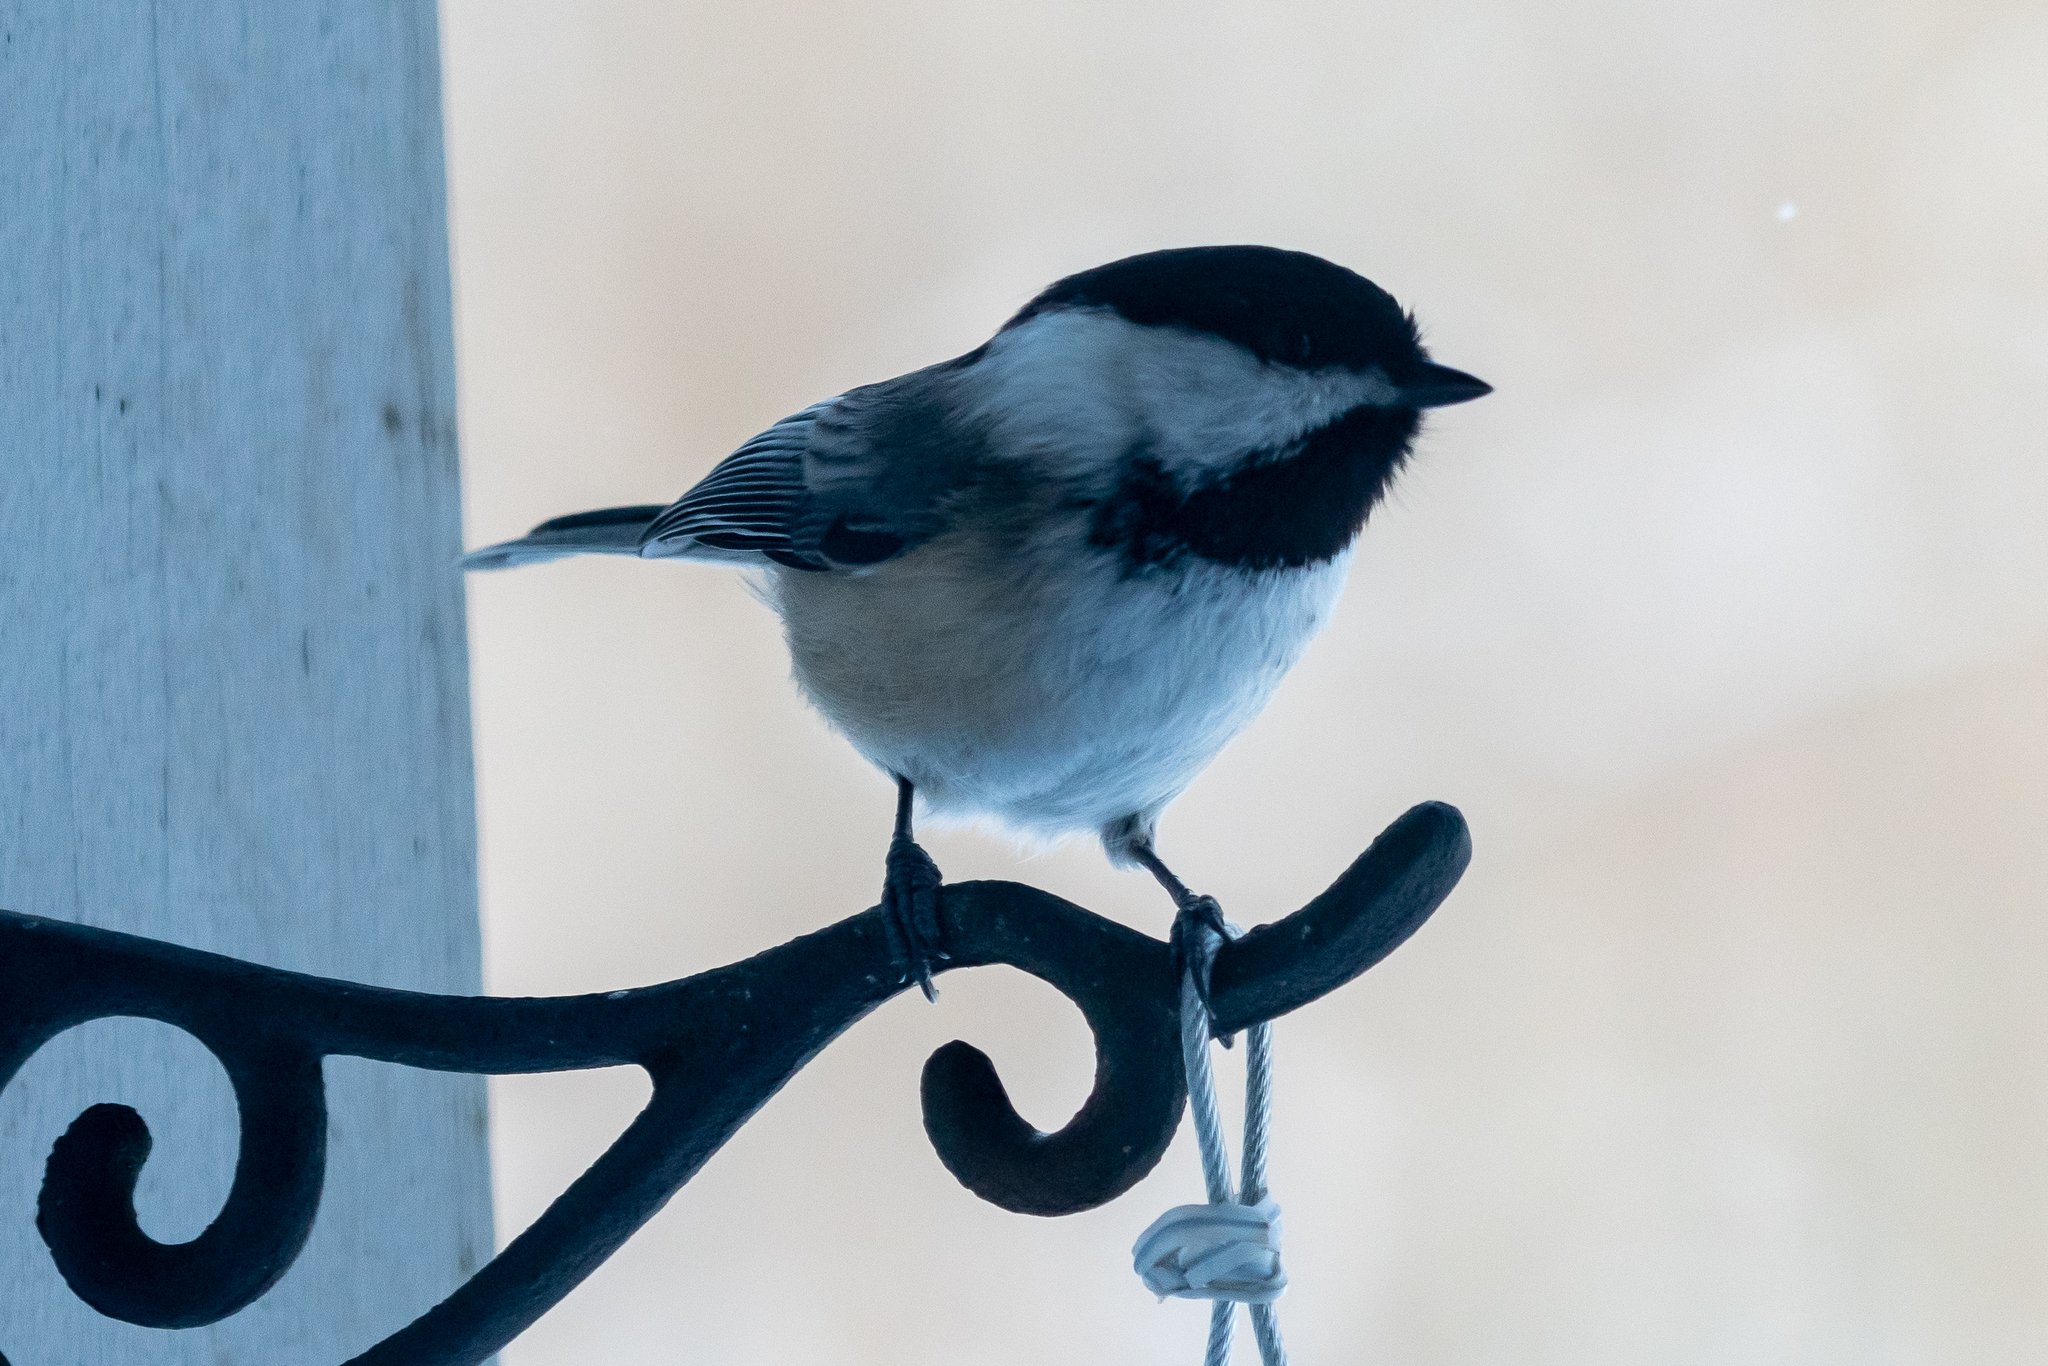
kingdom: Animalia
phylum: Chordata
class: Aves
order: Passeriformes
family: Paridae
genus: Poecile
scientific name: Poecile atricapillus
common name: Black-capped chickadee
